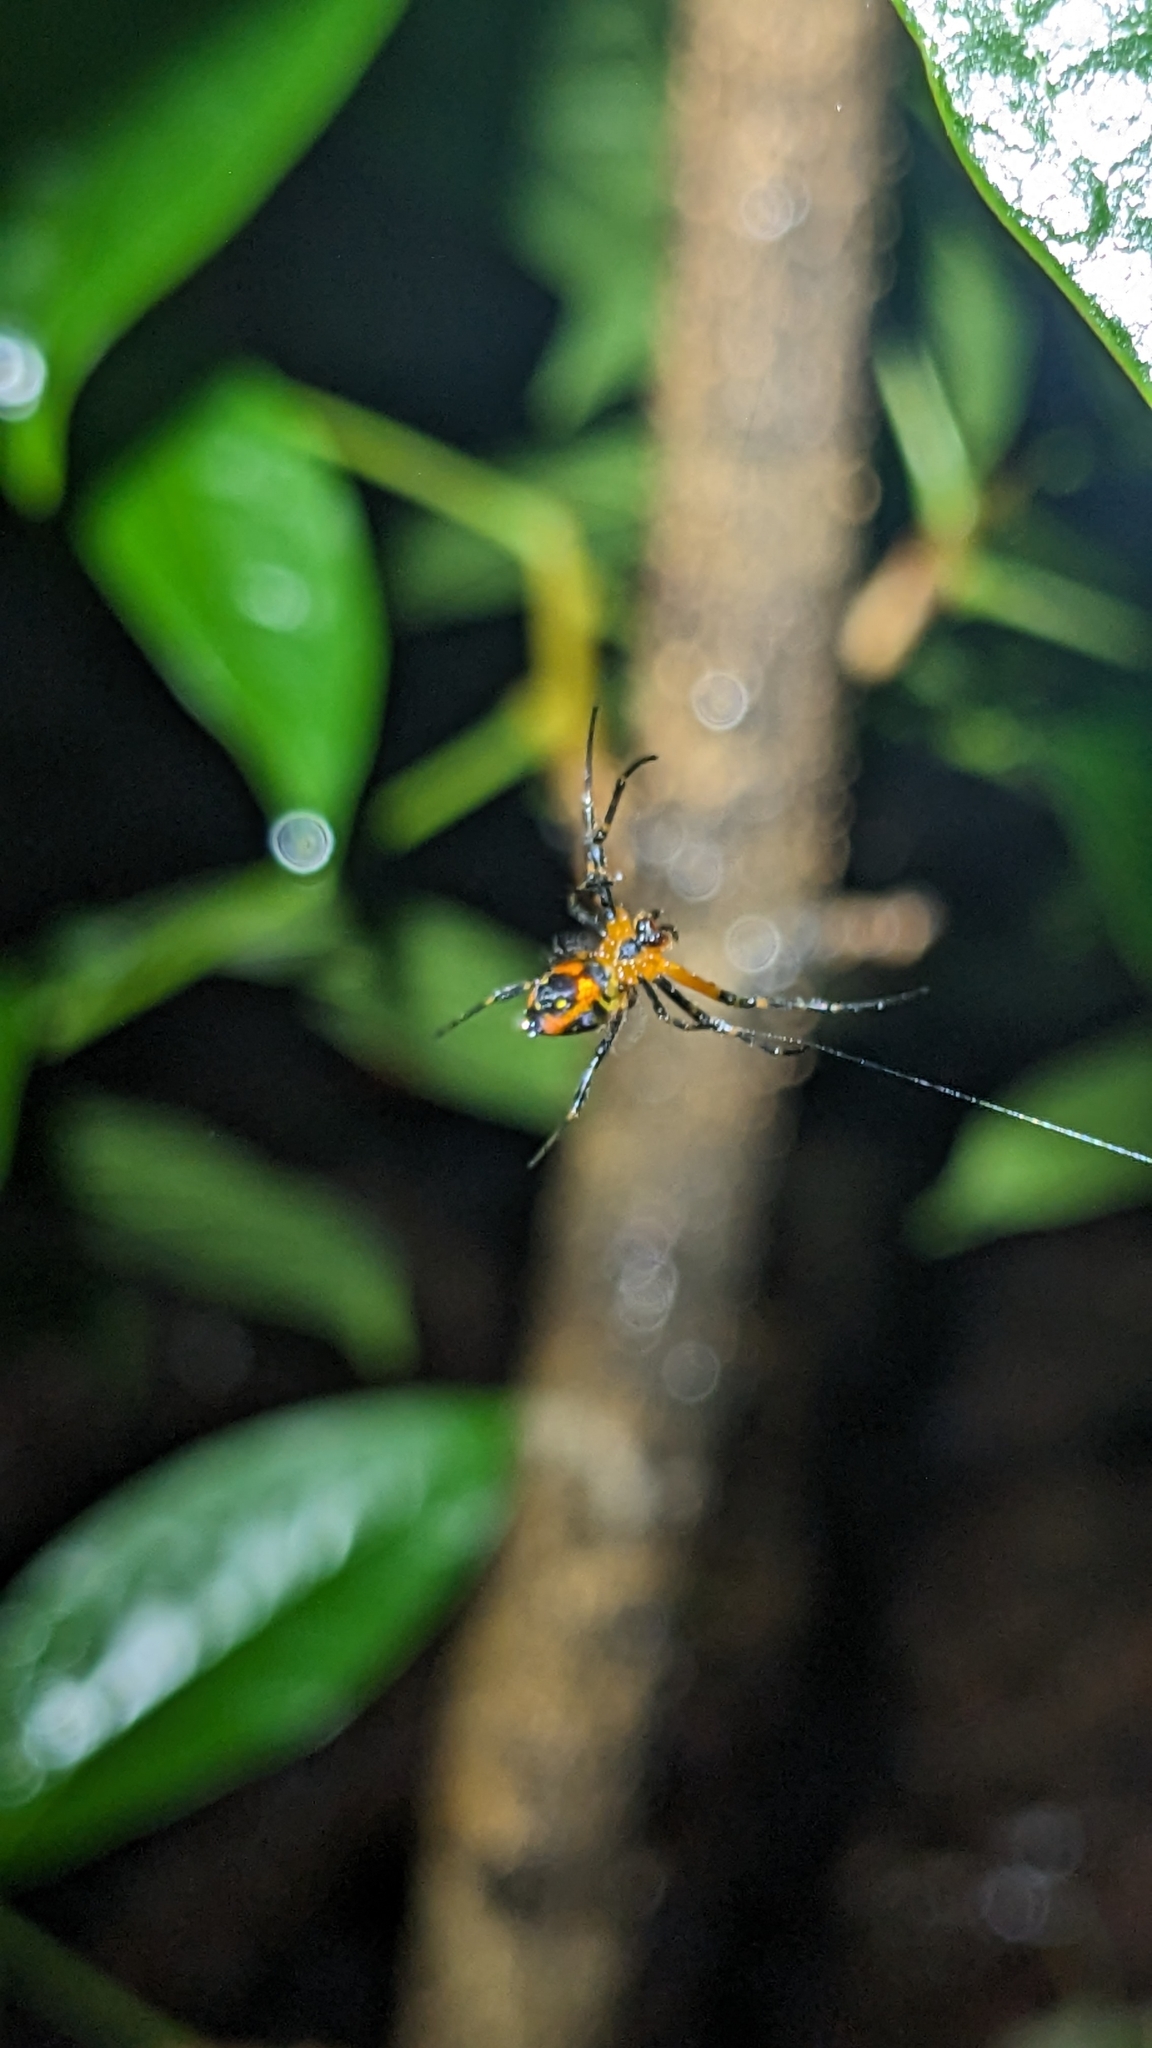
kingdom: Animalia
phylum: Arthropoda
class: Arachnida
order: Araneae
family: Tetragnathidae
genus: Leucauge
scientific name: Leucauge fastigata
